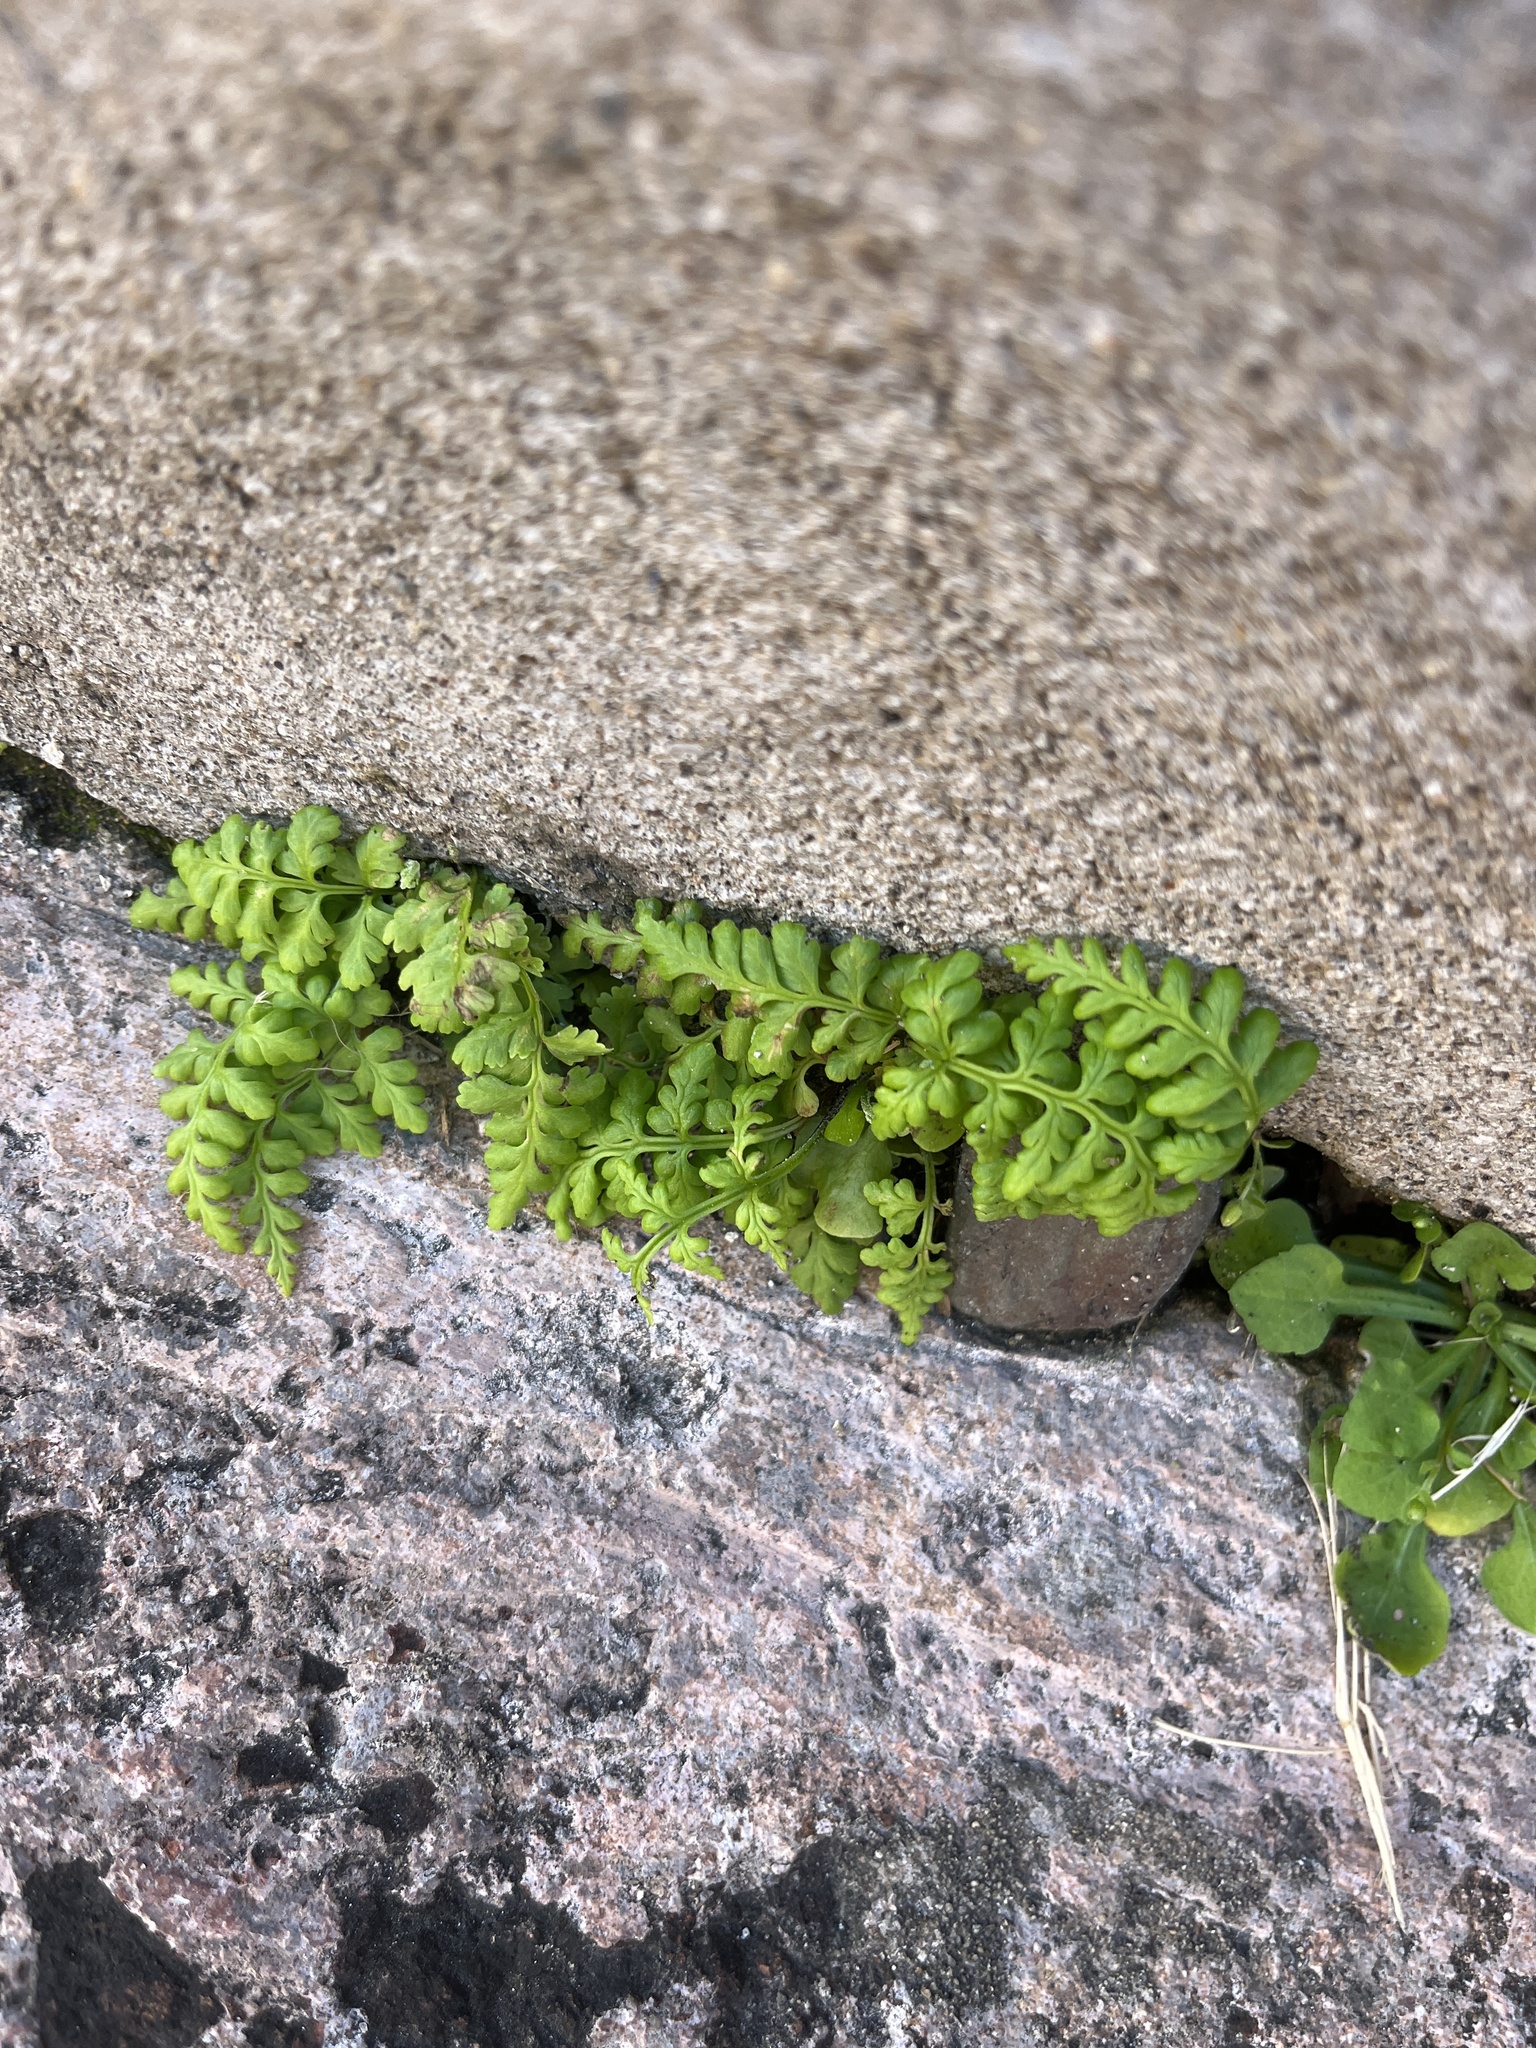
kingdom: Plantae
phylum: Tracheophyta
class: Polypodiopsida
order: Polypodiales
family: Pteridaceae
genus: Pityrogramma
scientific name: Pityrogramma chrysophylla
